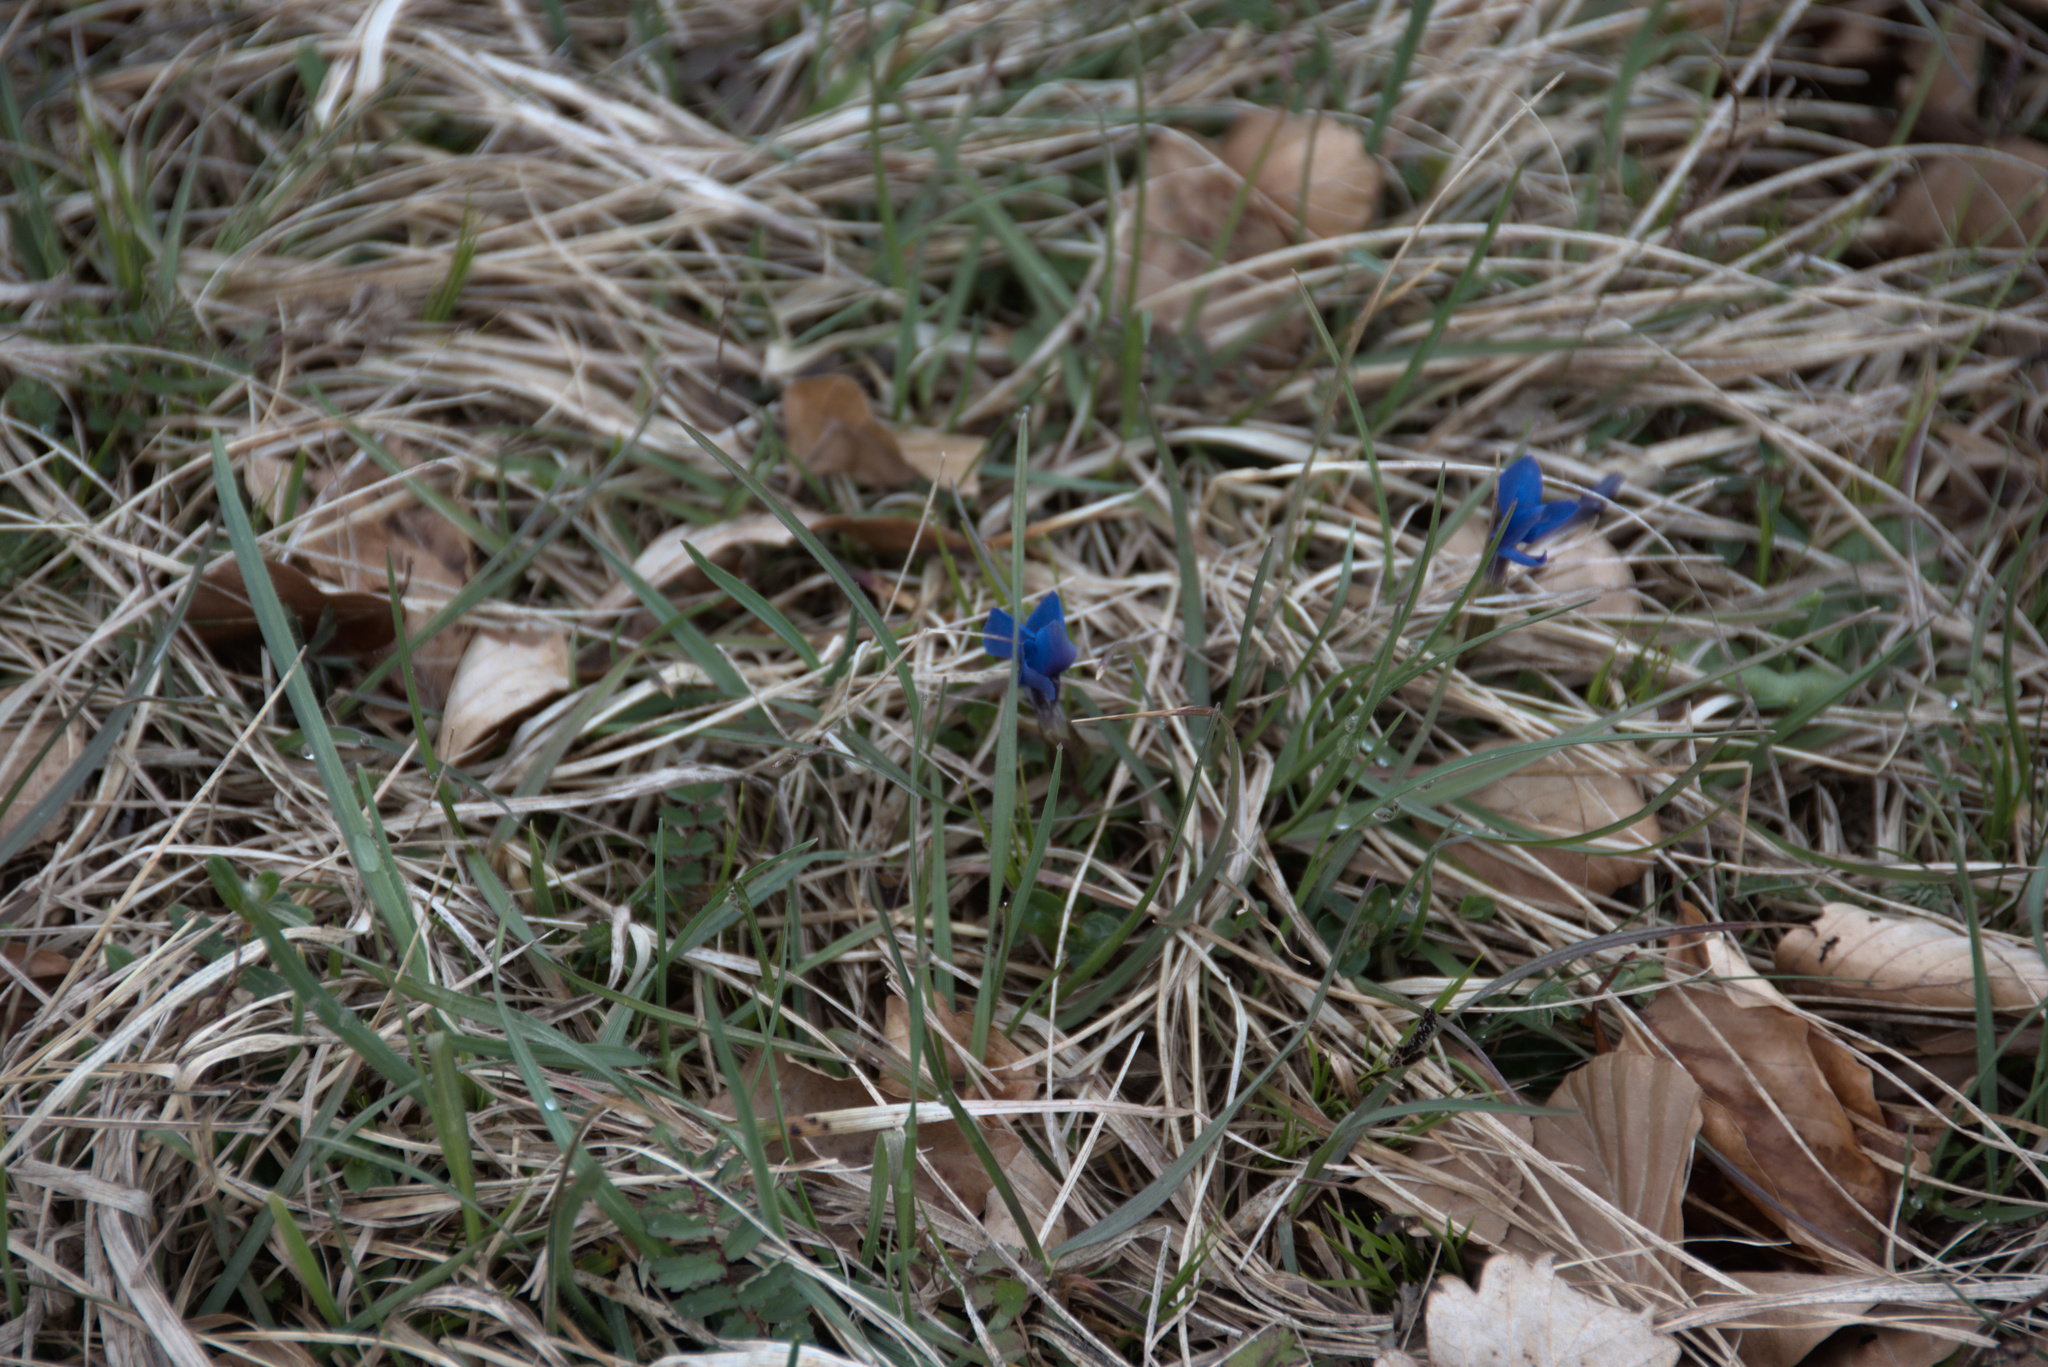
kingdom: Plantae
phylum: Tracheophyta
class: Magnoliopsida
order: Gentianales
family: Gentianaceae
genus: Gentiana
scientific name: Gentiana verna
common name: Spring gentian
